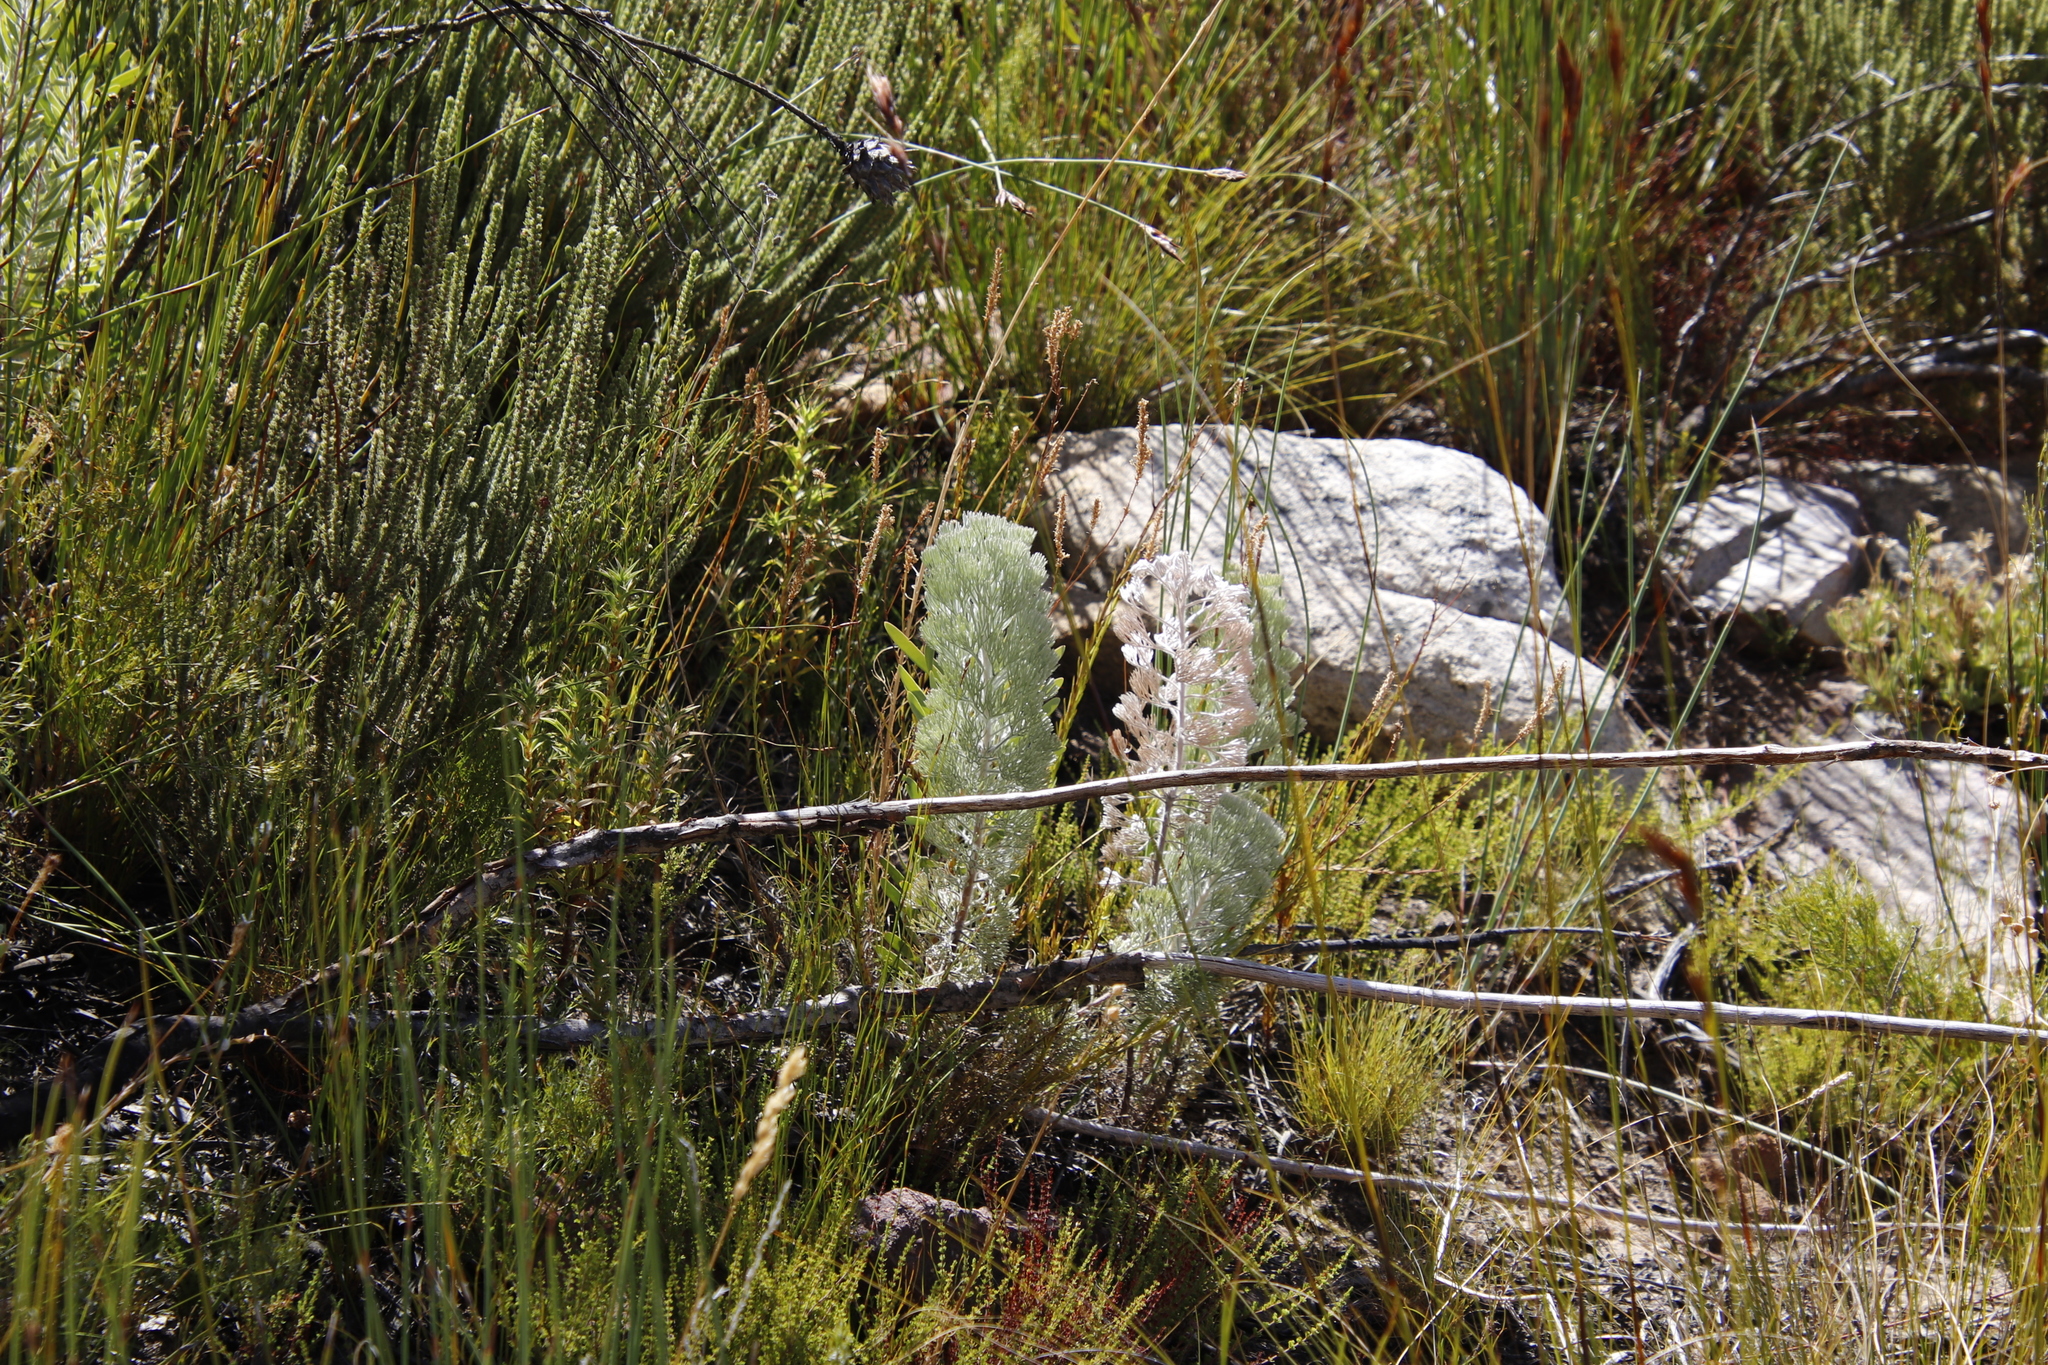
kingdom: Plantae
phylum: Tracheophyta
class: Magnoliopsida
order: Proteales
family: Proteaceae
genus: Paranomus
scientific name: Paranomus tomentosus
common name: Hairy-leaf tree sceptre
